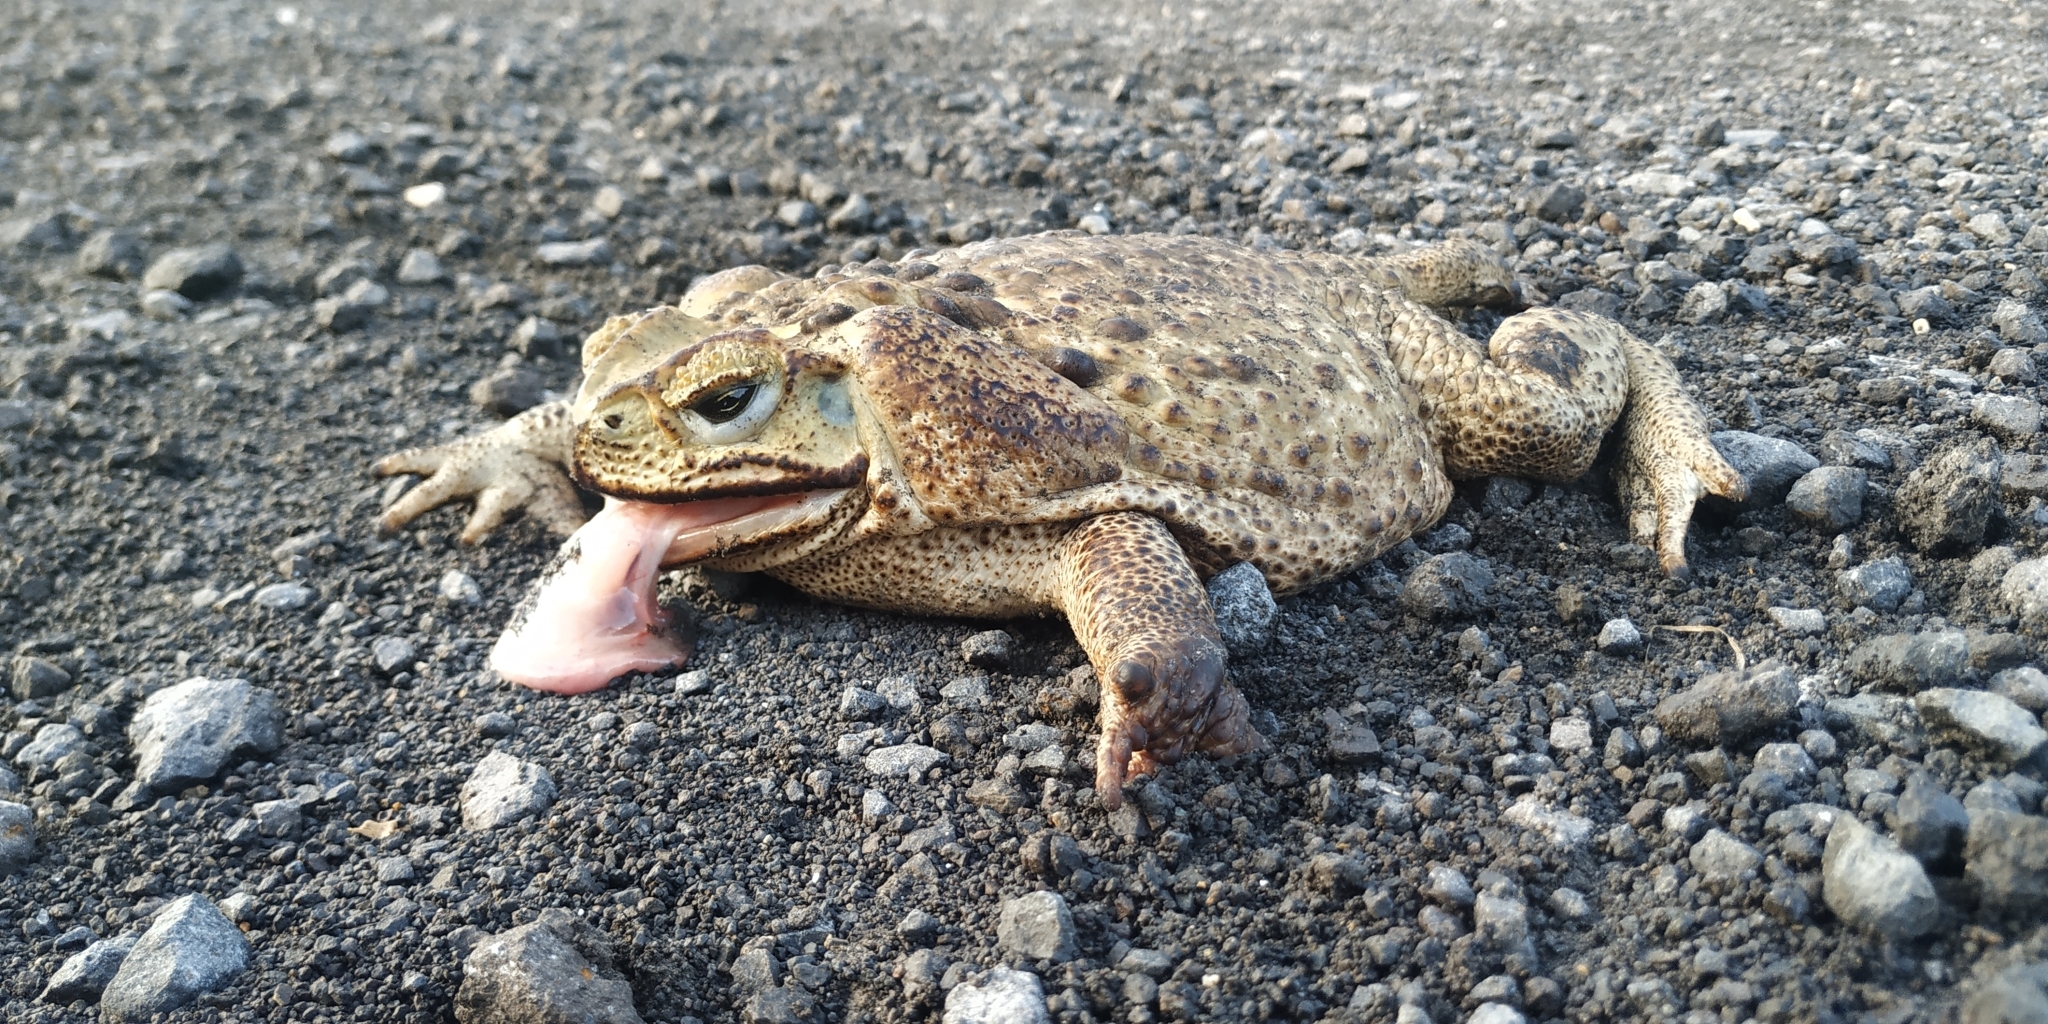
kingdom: Animalia
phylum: Chordata
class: Amphibia
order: Anura
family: Bufonidae
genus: Rhinella
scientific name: Rhinella horribilis
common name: Mesoamerican cane toad
